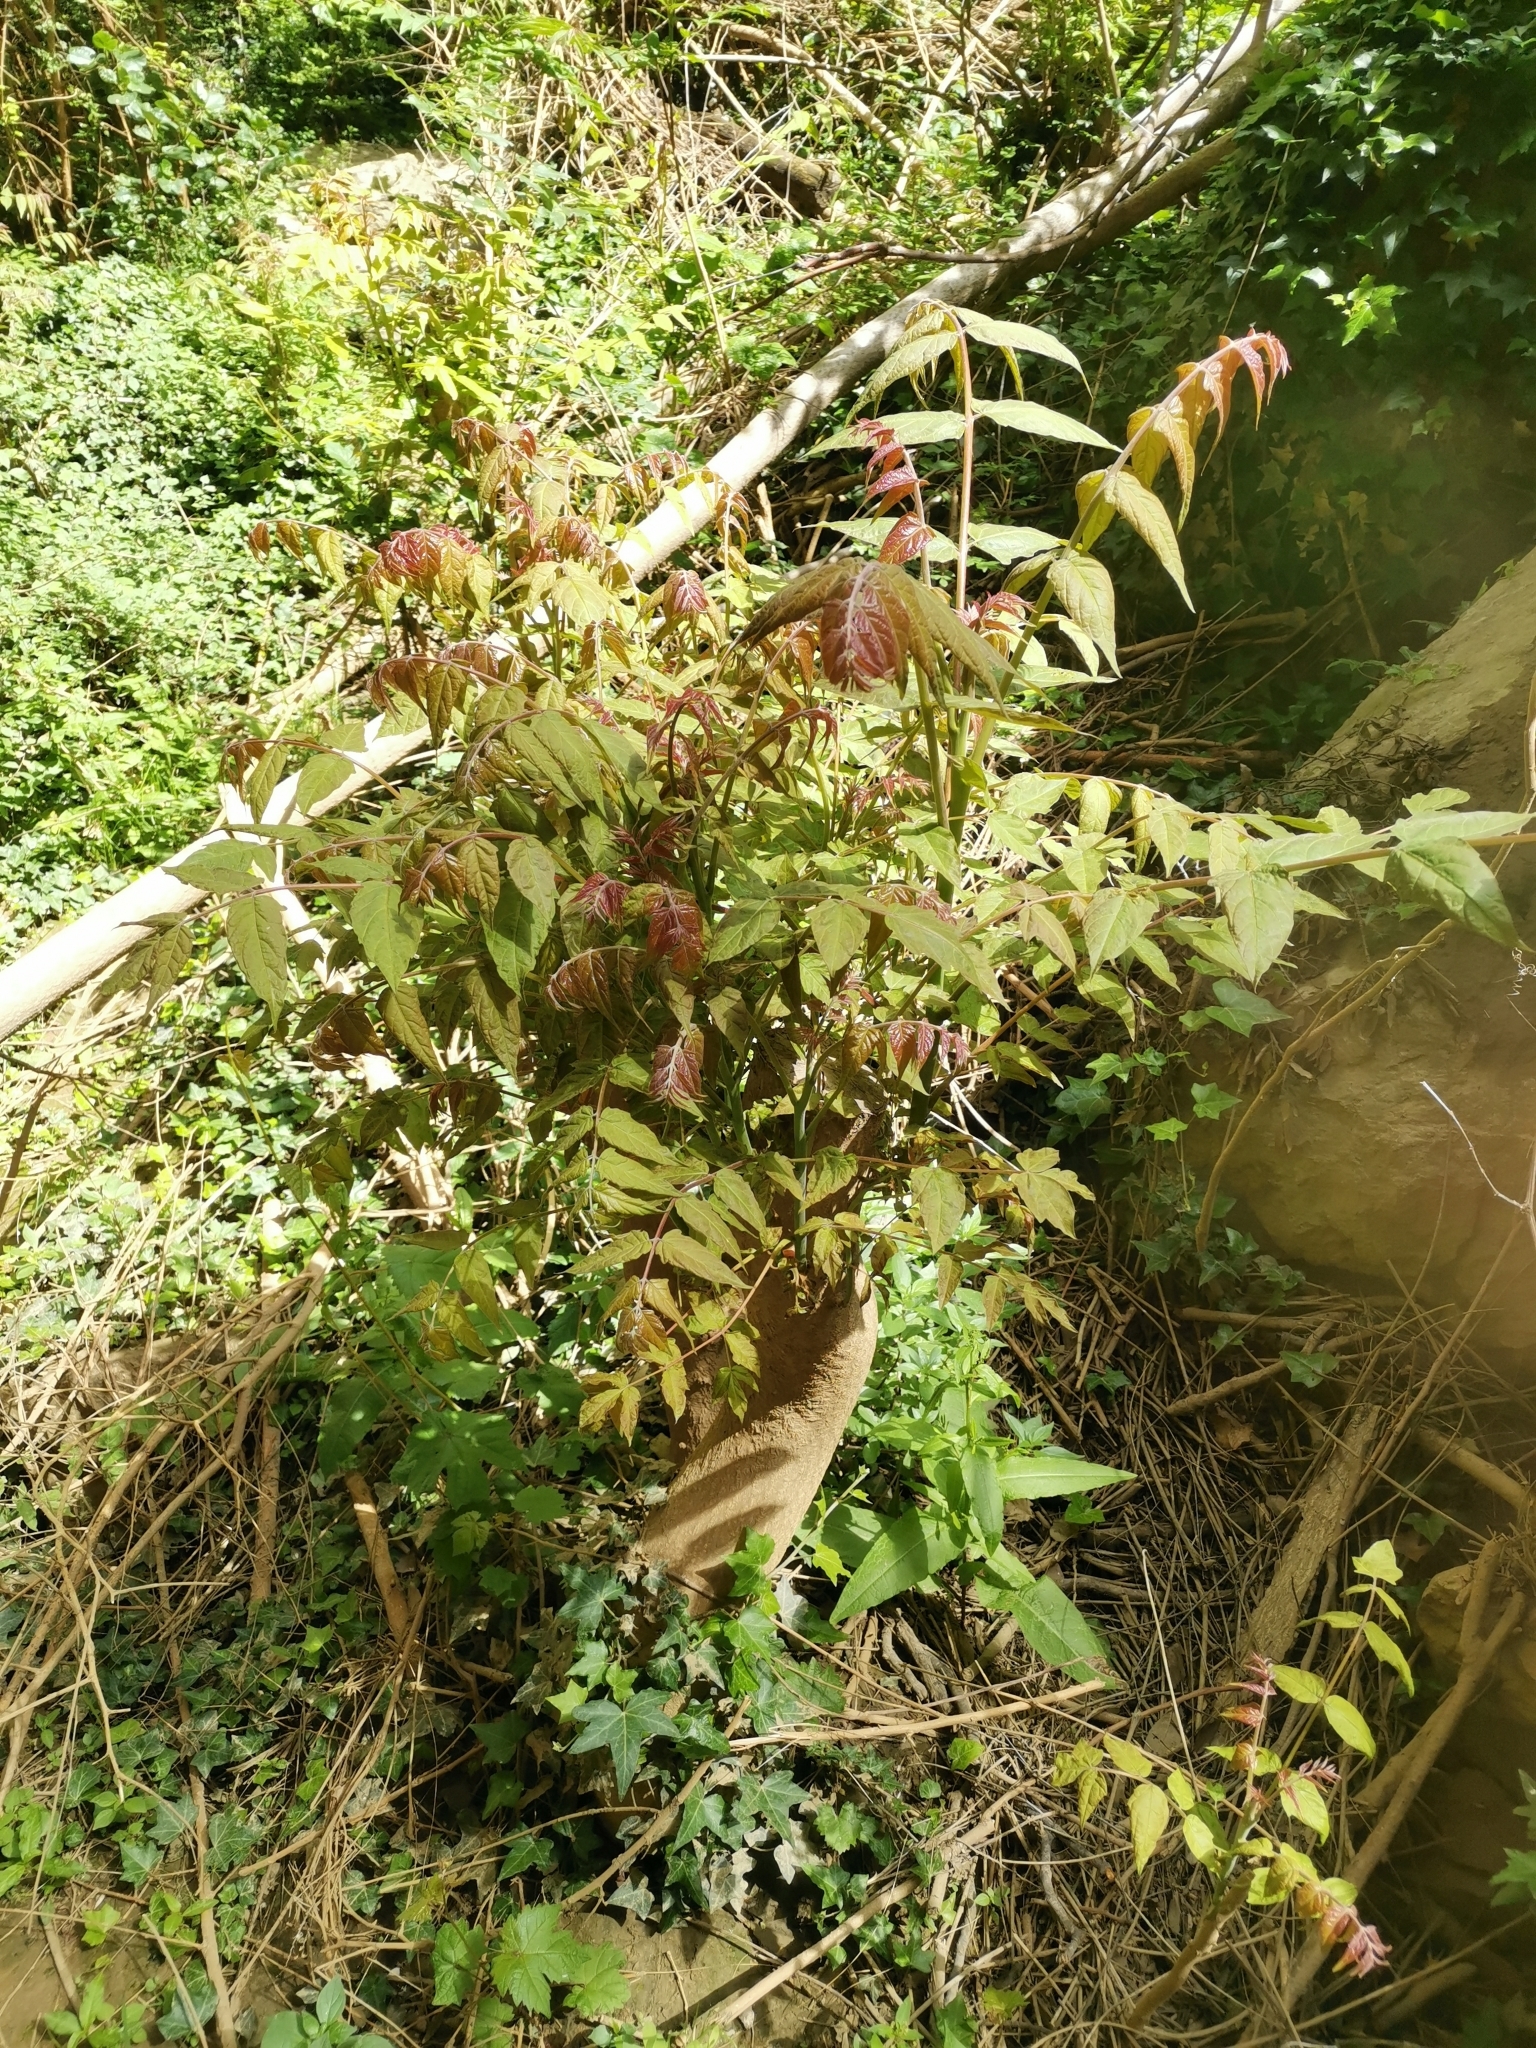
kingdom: Plantae
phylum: Tracheophyta
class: Magnoliopsida
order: Sapindales
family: Simaroubaceae
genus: Ailanthus
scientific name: Ailanthus altissima
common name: Tree-of-heaven
